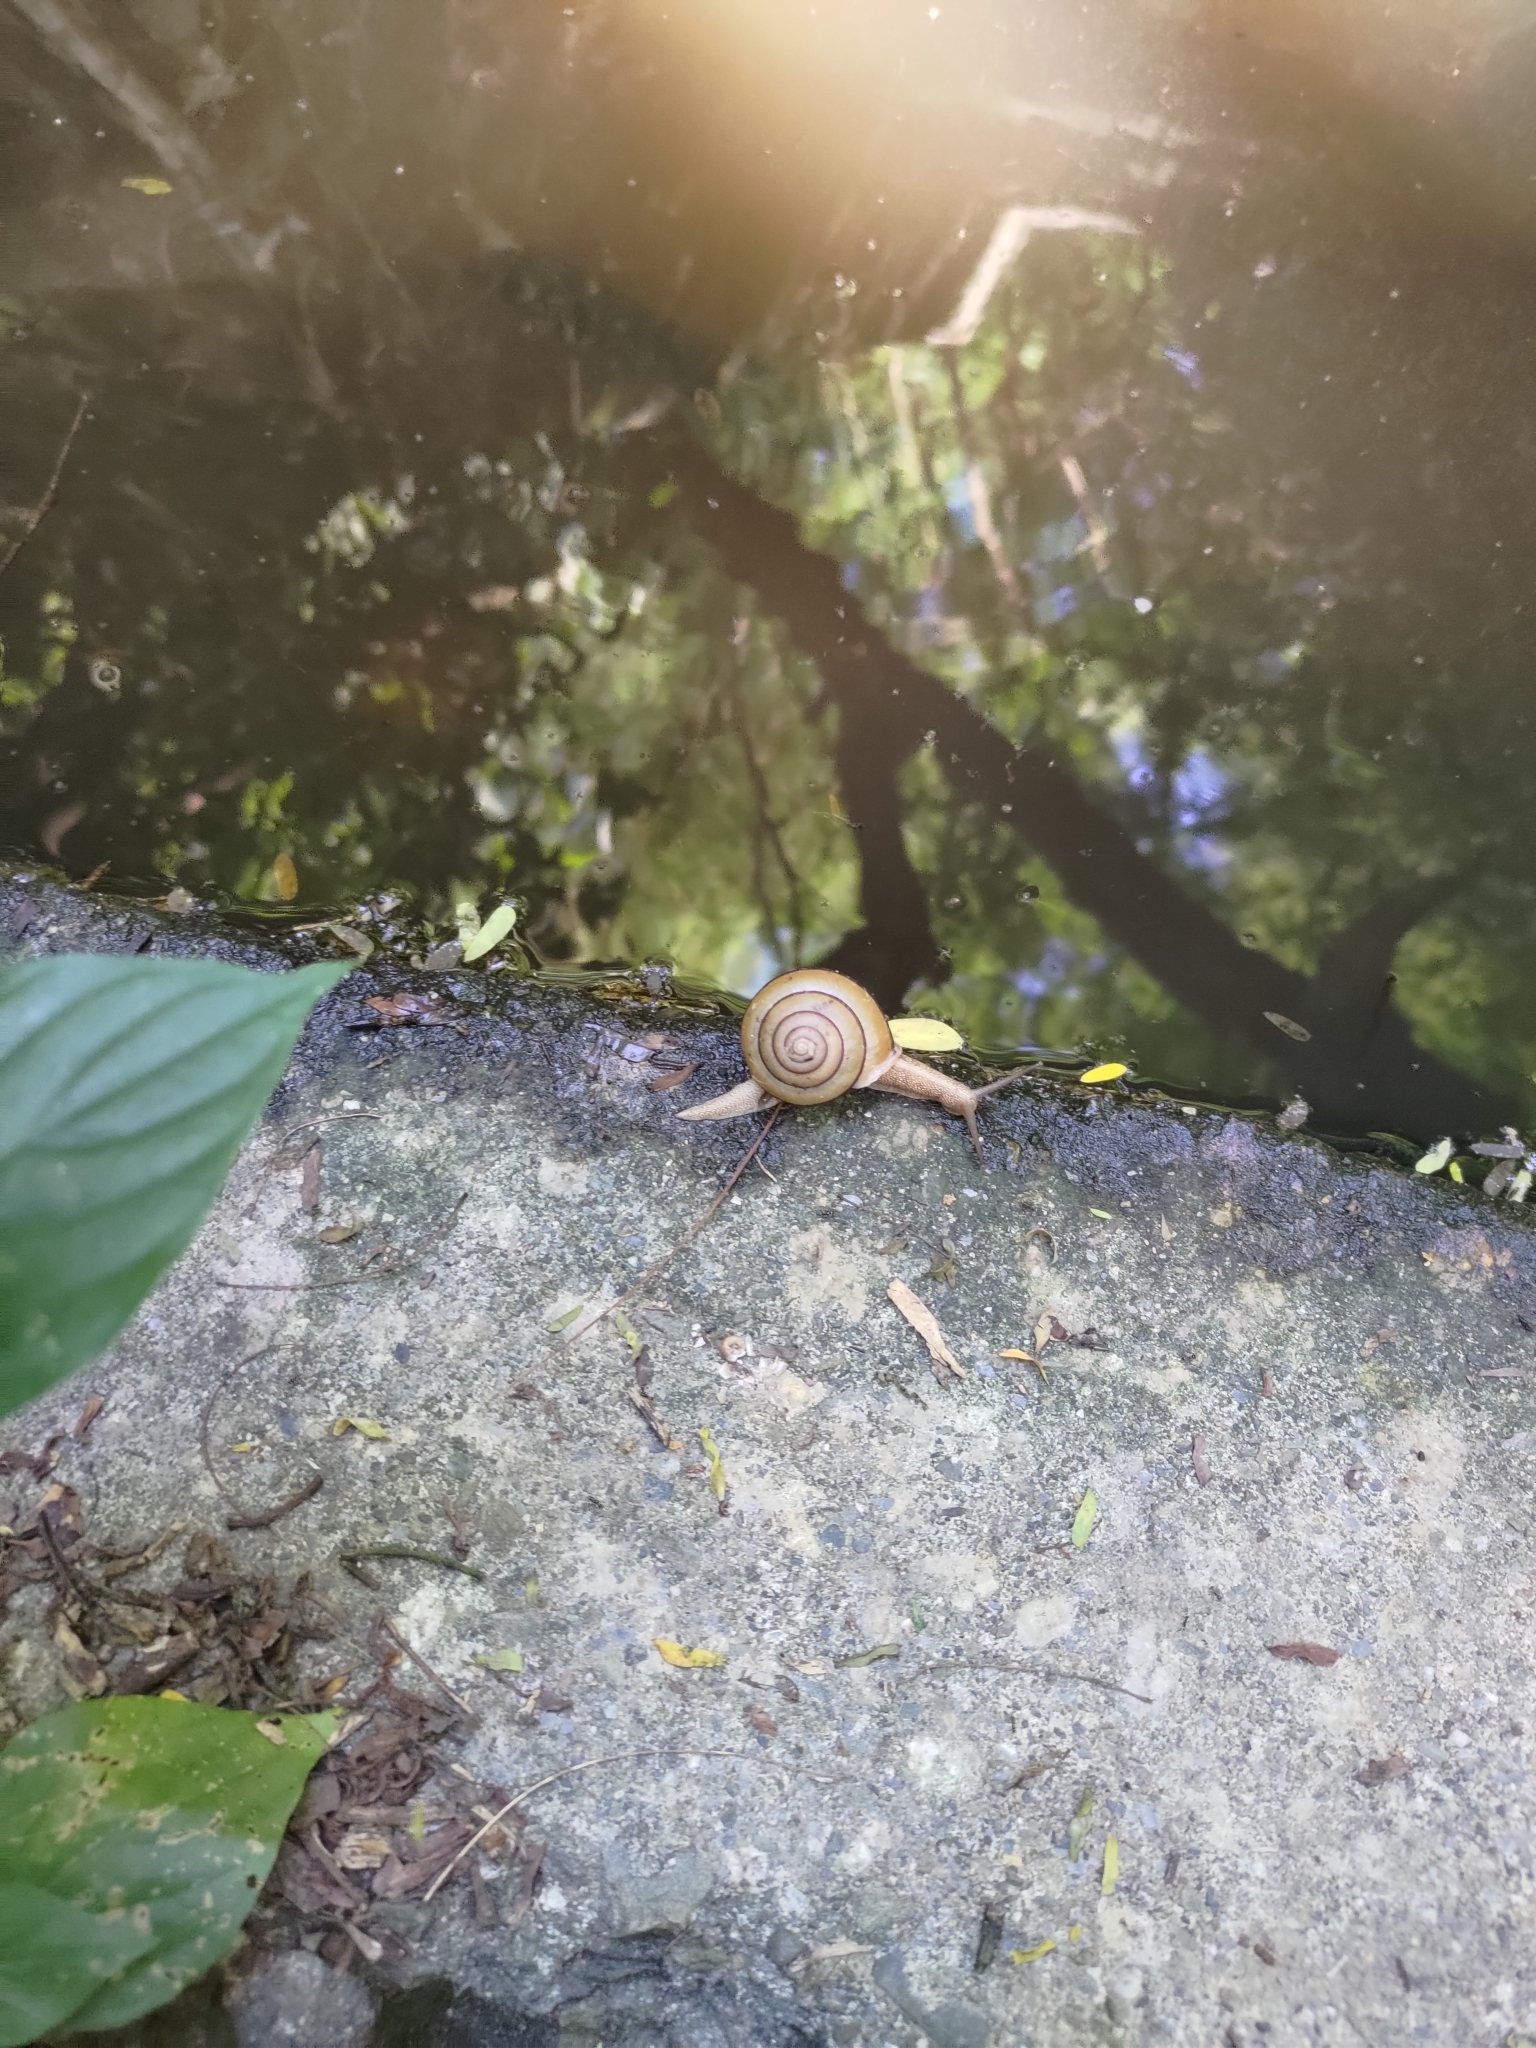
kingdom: Animalia
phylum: Mollusca
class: Gastropoda
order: Stylommatophora
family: Camaenidae
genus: Satsuma
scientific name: Satsuma succincta
